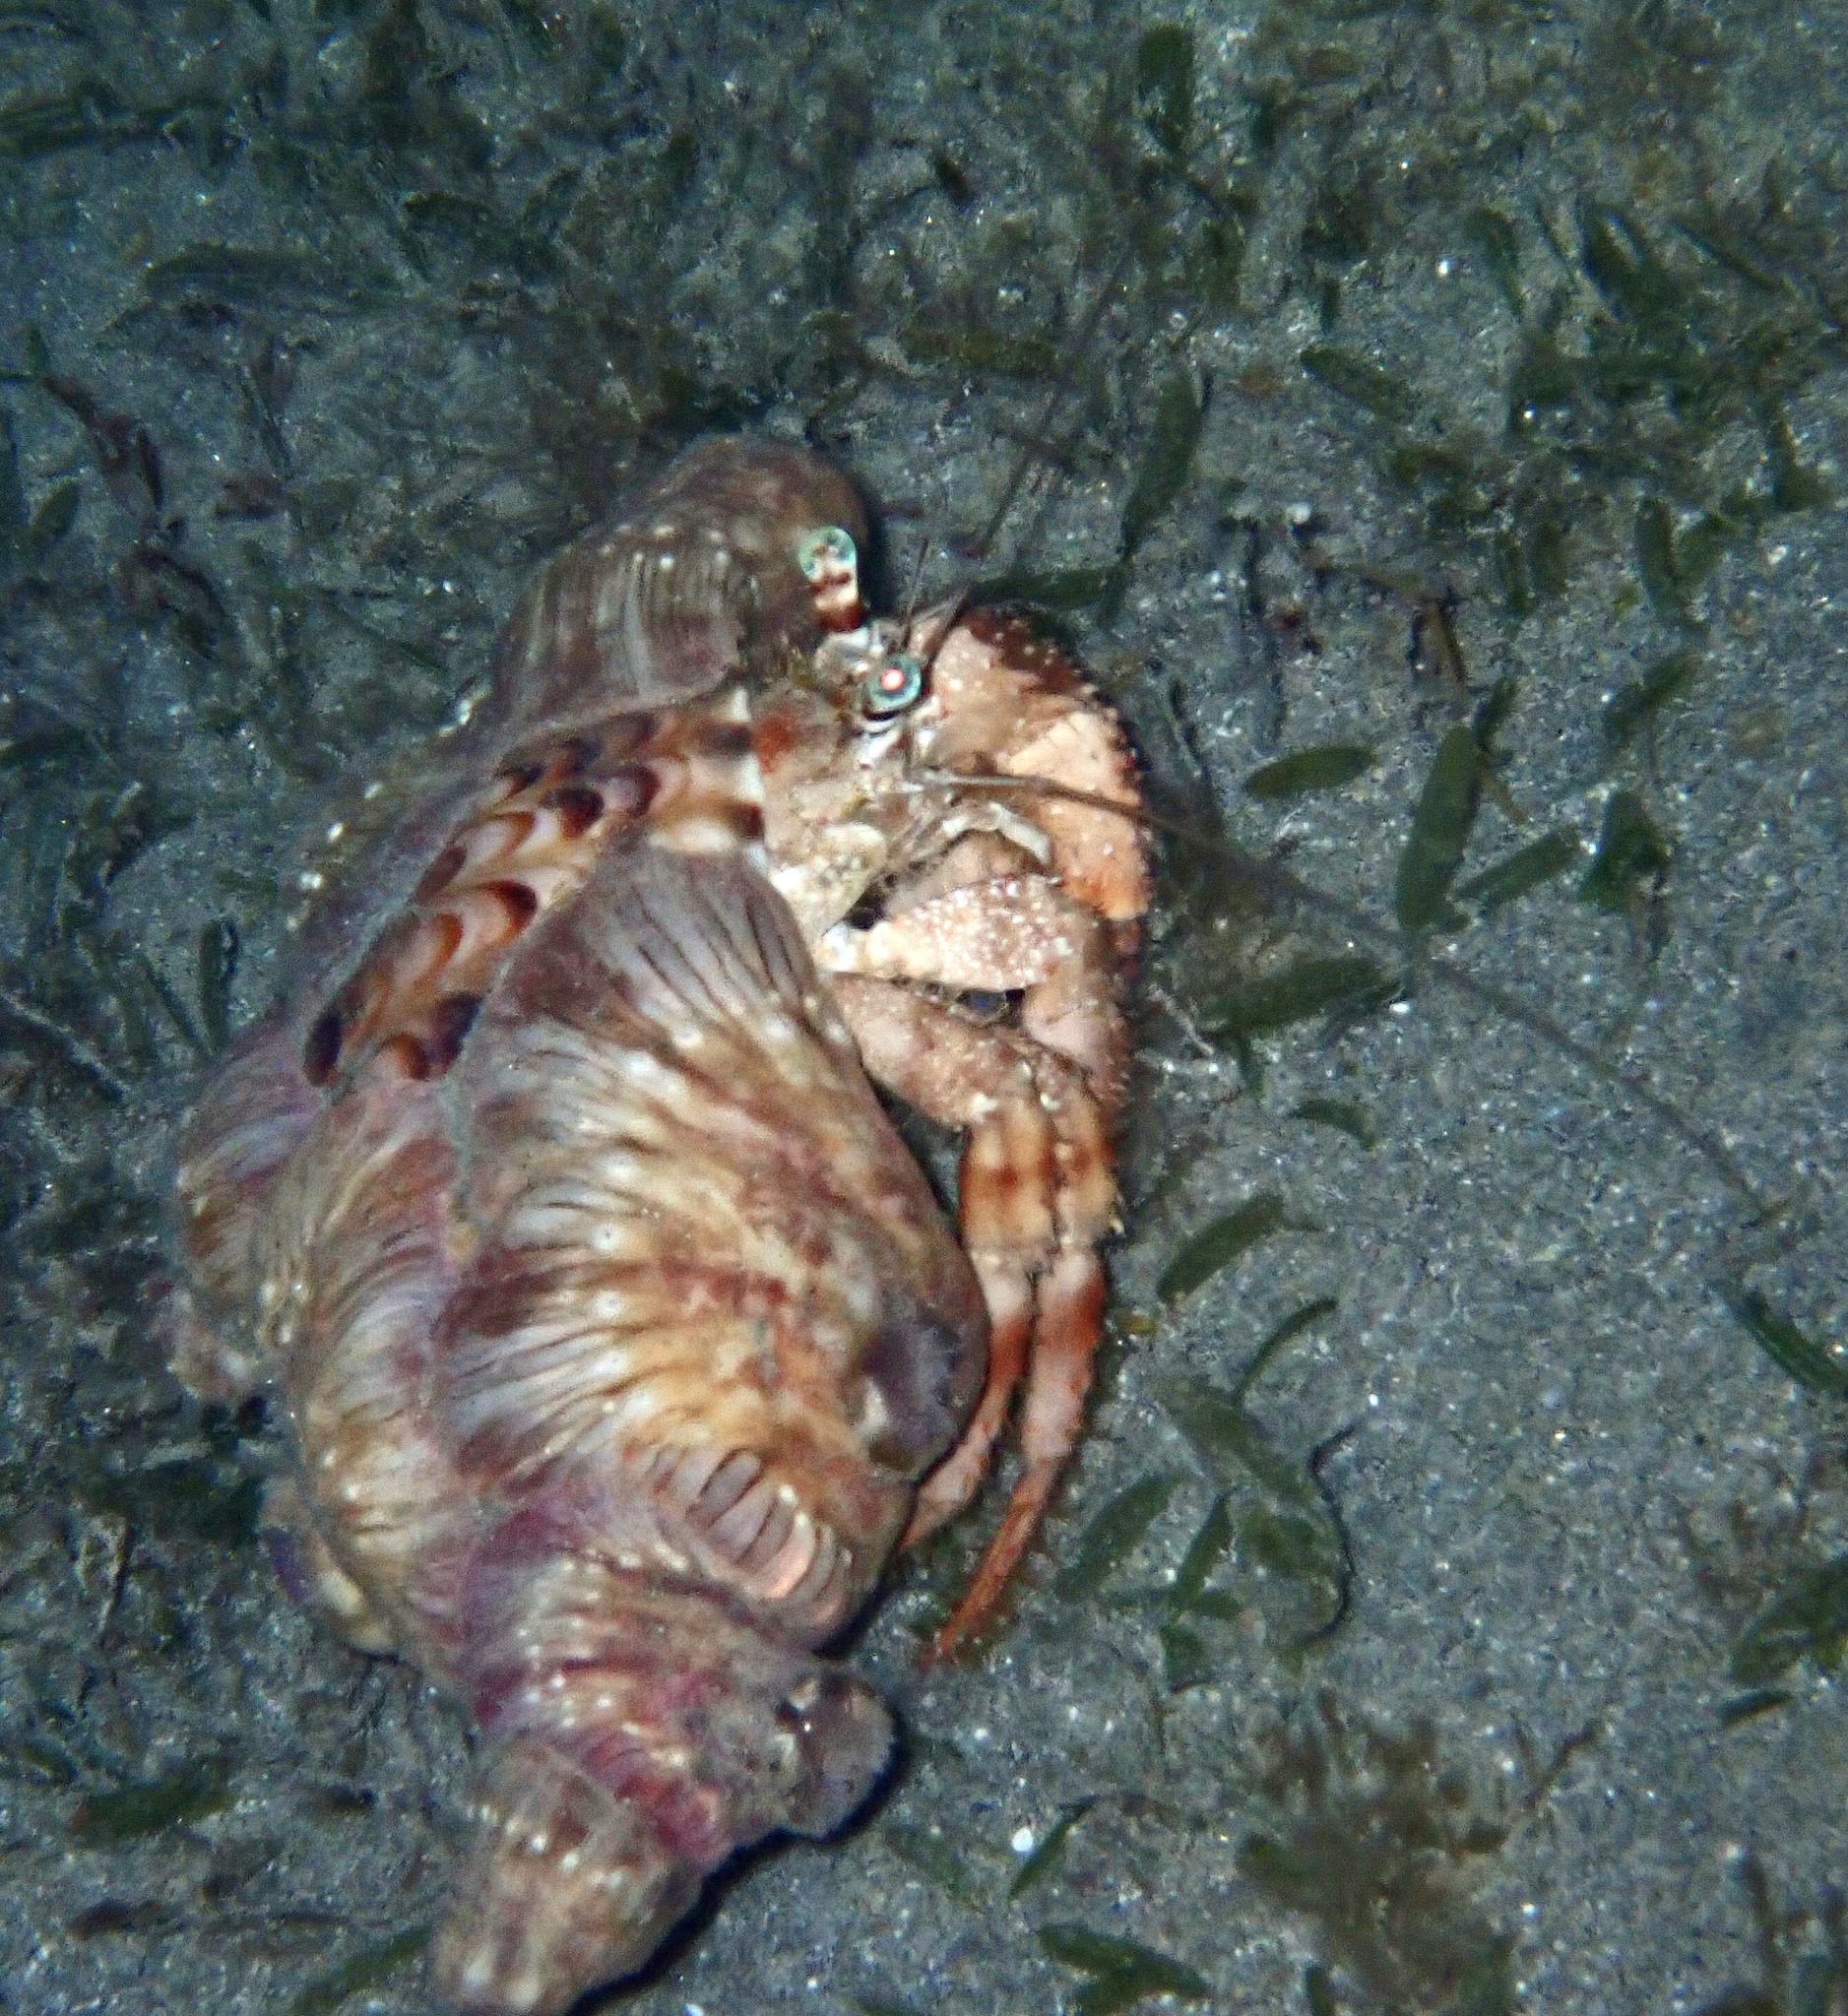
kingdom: Animalia
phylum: Arthropoda
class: Malacostraca
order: Decapoda
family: Diogenidae
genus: Dardanus
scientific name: Dardanus tinctor
